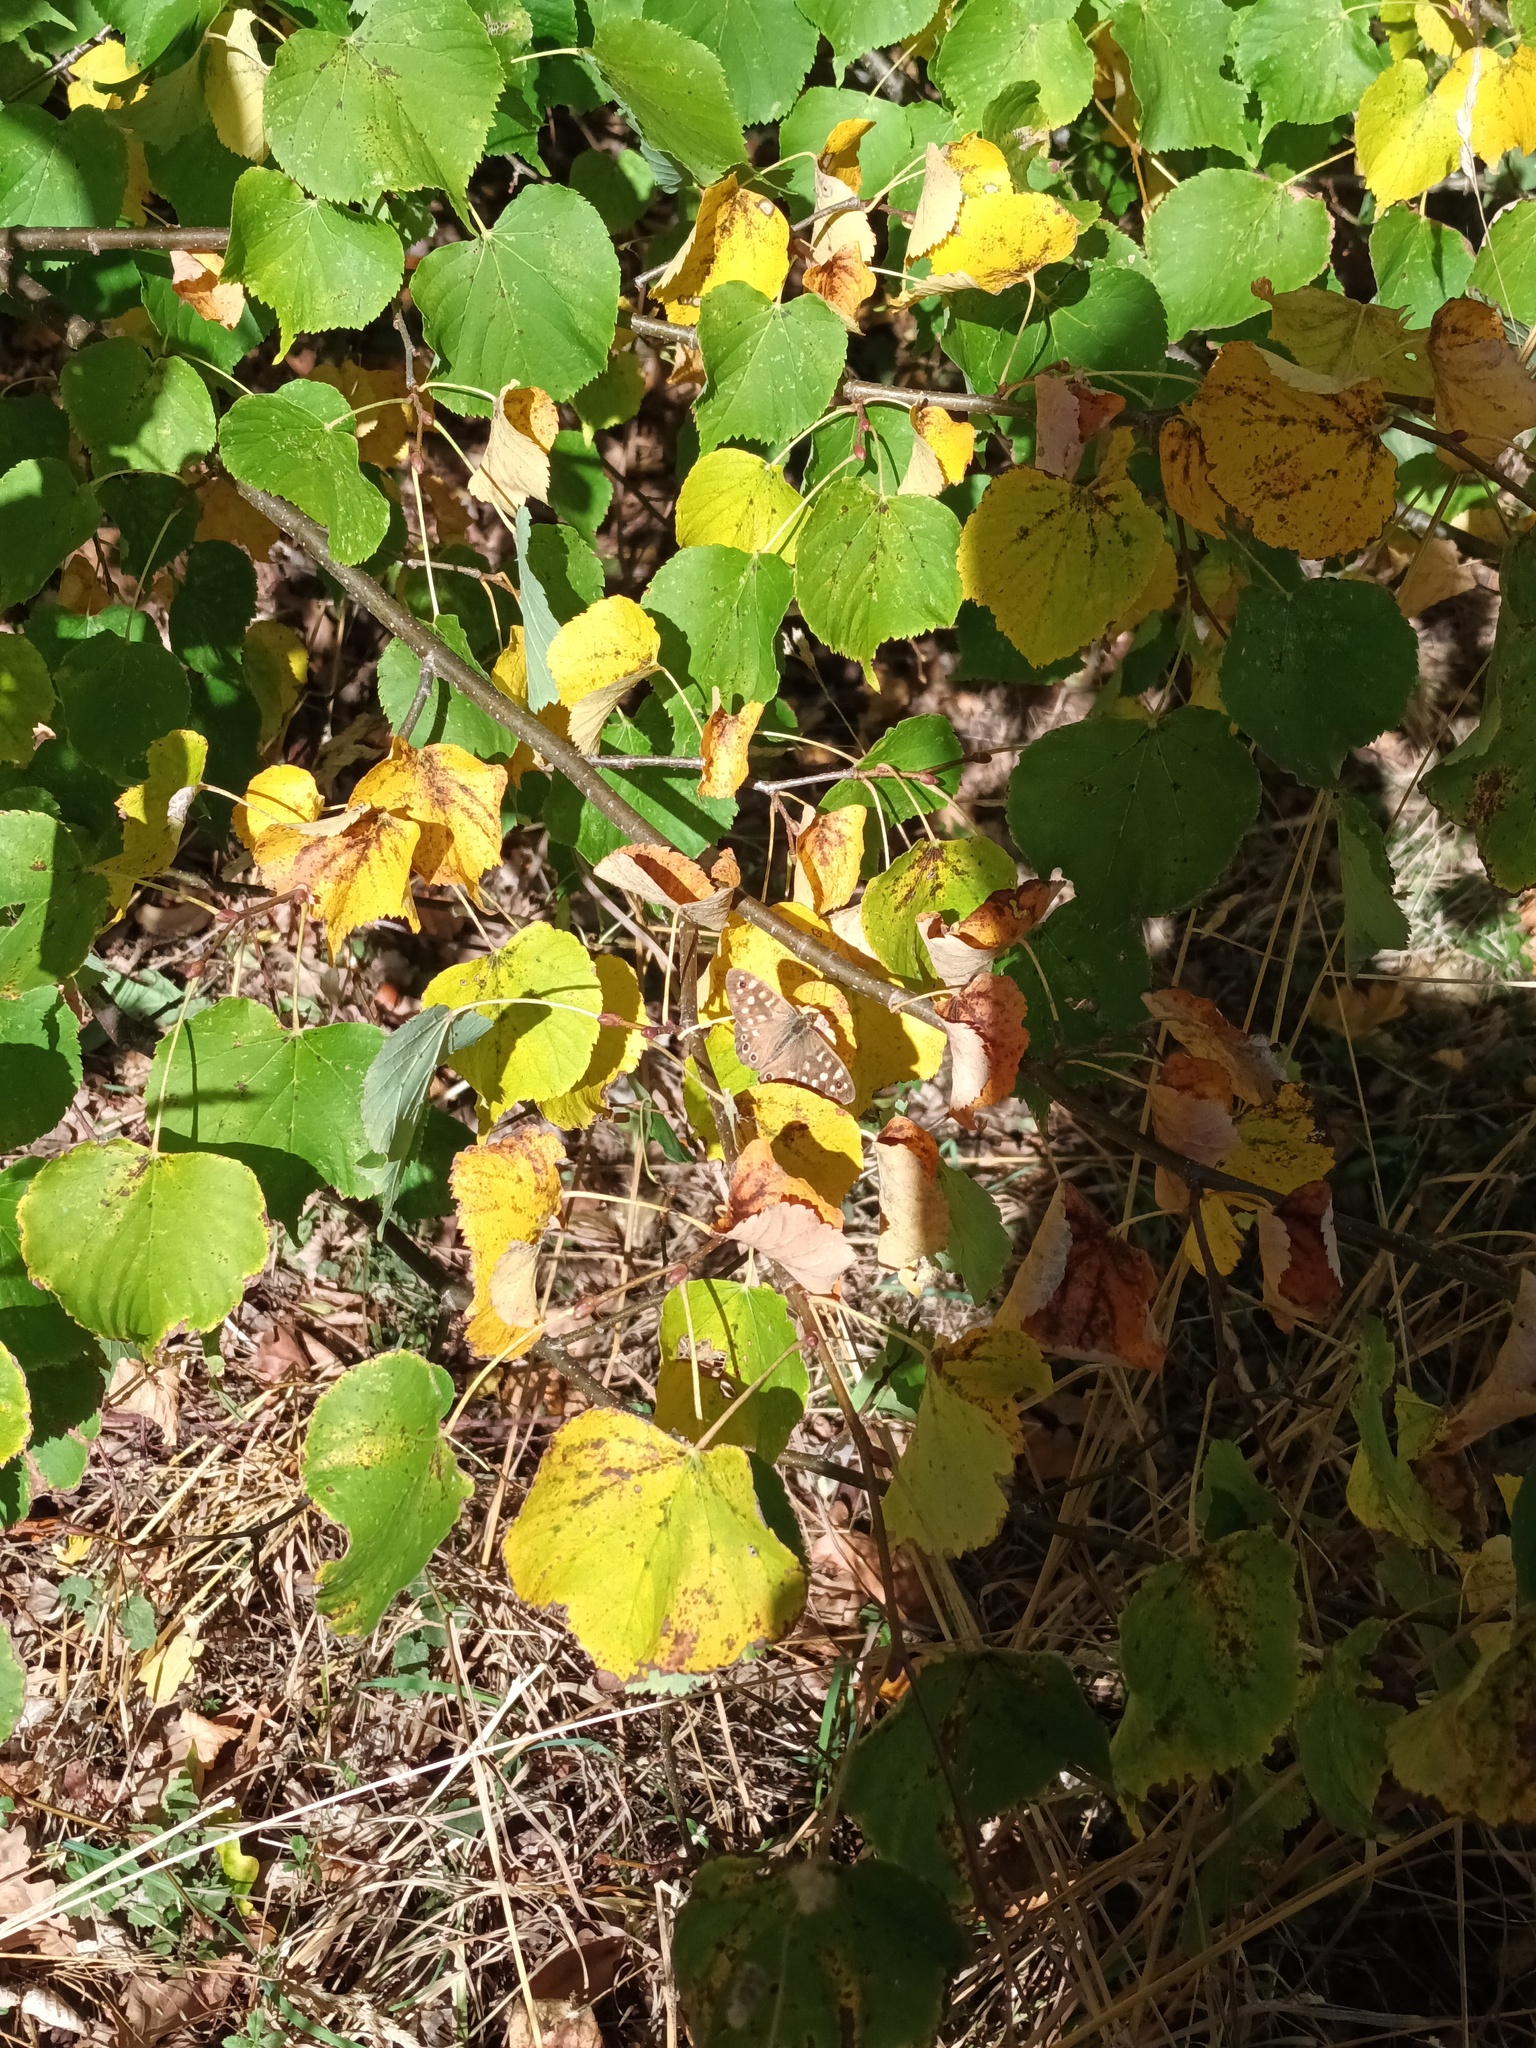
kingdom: Animalia
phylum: Arthropoda
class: Insecta
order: Lepidoptera
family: Nymphalidae
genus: Pararge
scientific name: Pararge aegeria
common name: Speckled wood
